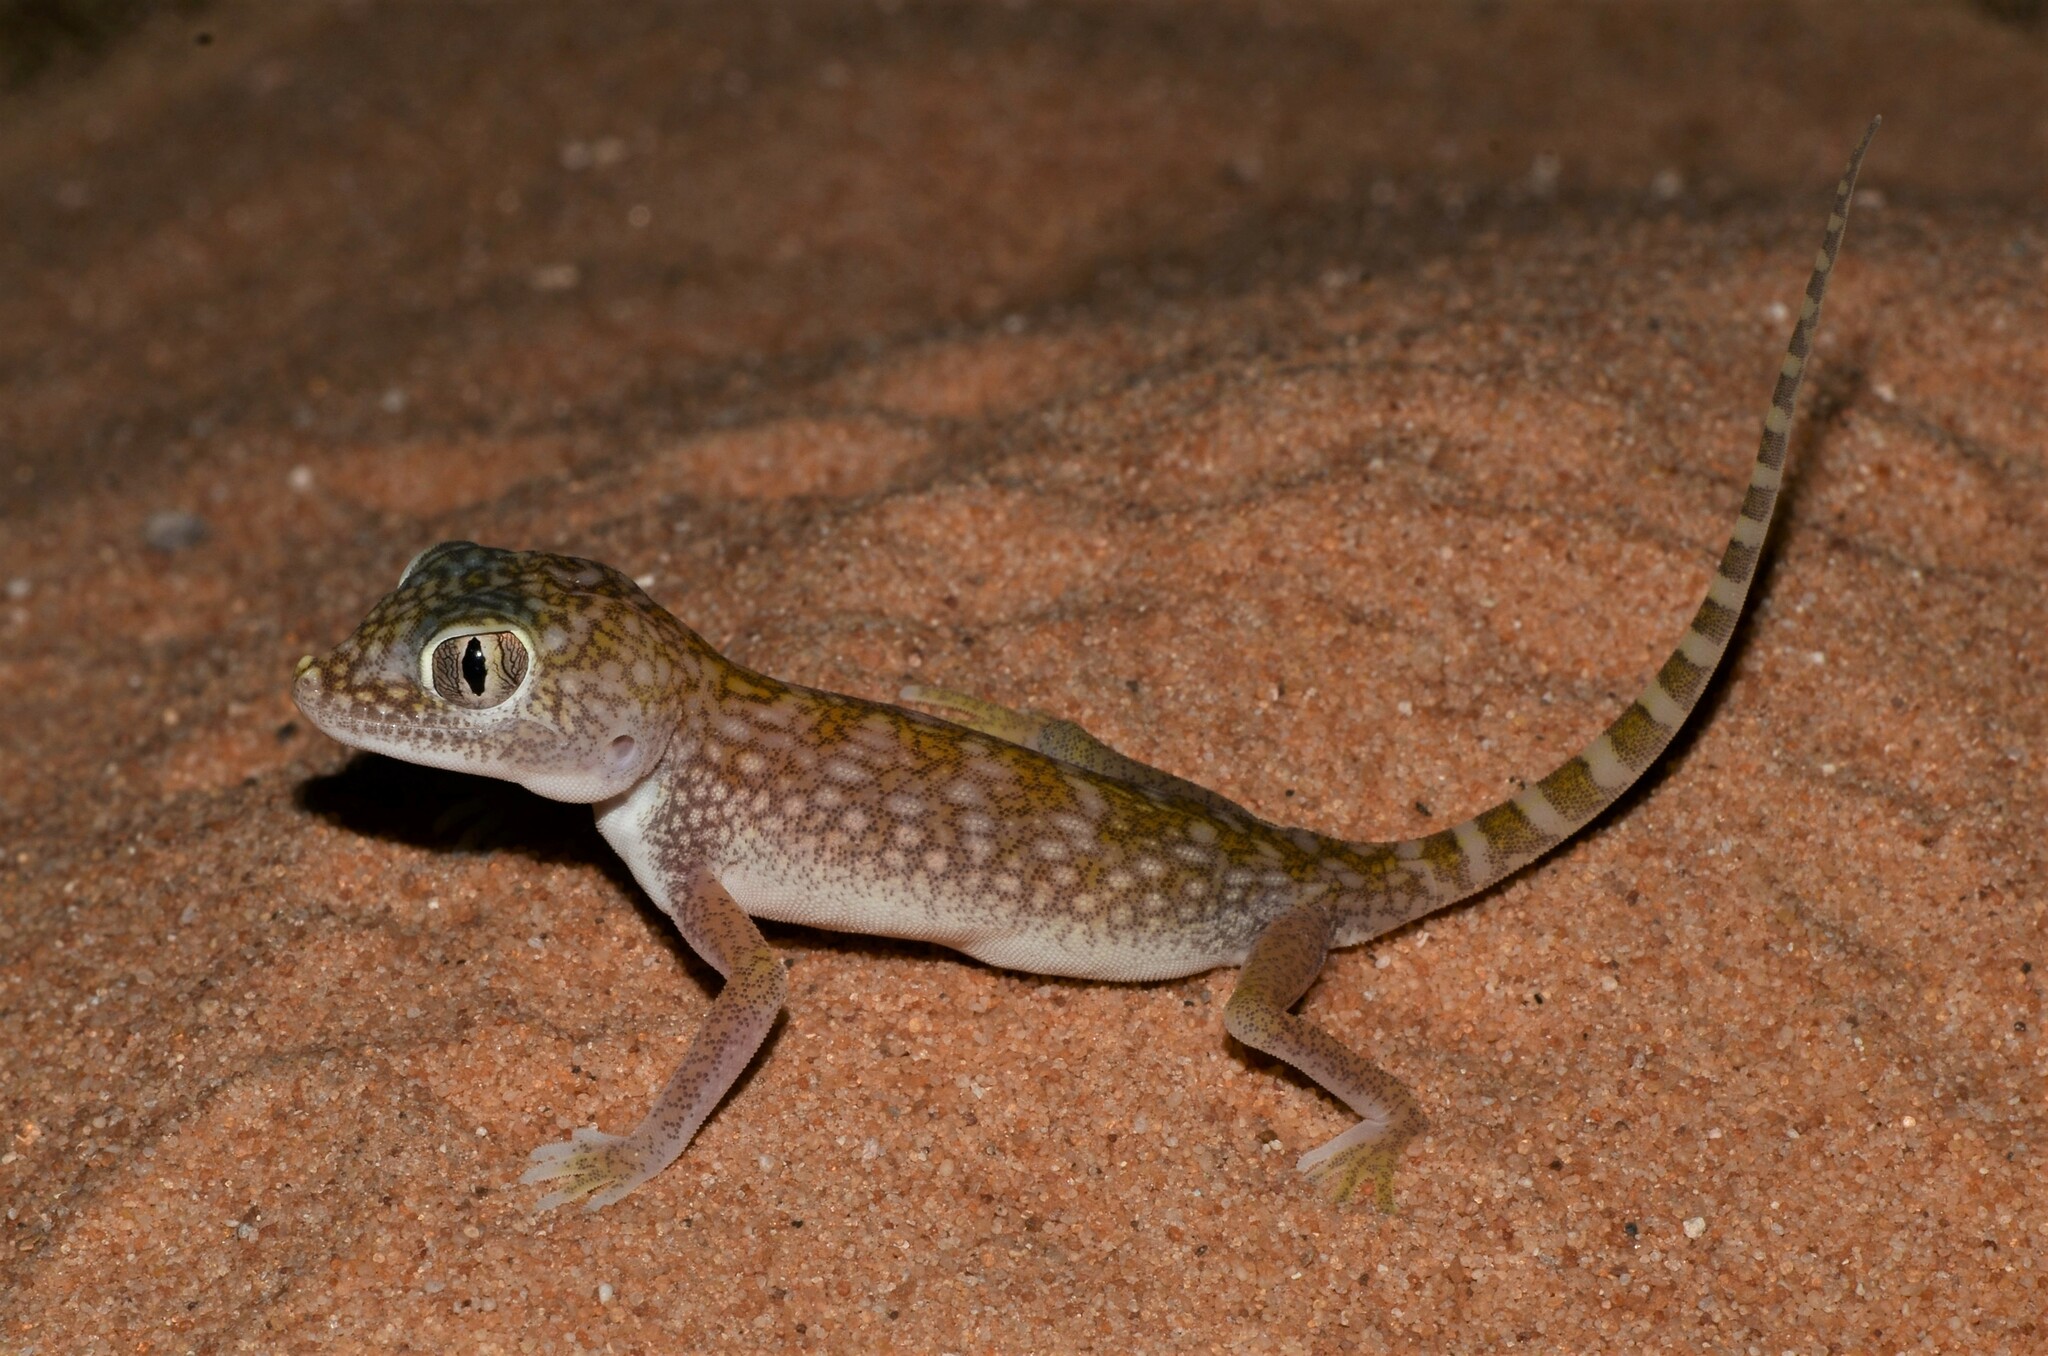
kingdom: Animalia
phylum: Chordata
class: Squamata
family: Gekkonidae
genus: Stenodactylus
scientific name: Stenodactylus doriae
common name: Dune sand gecko
